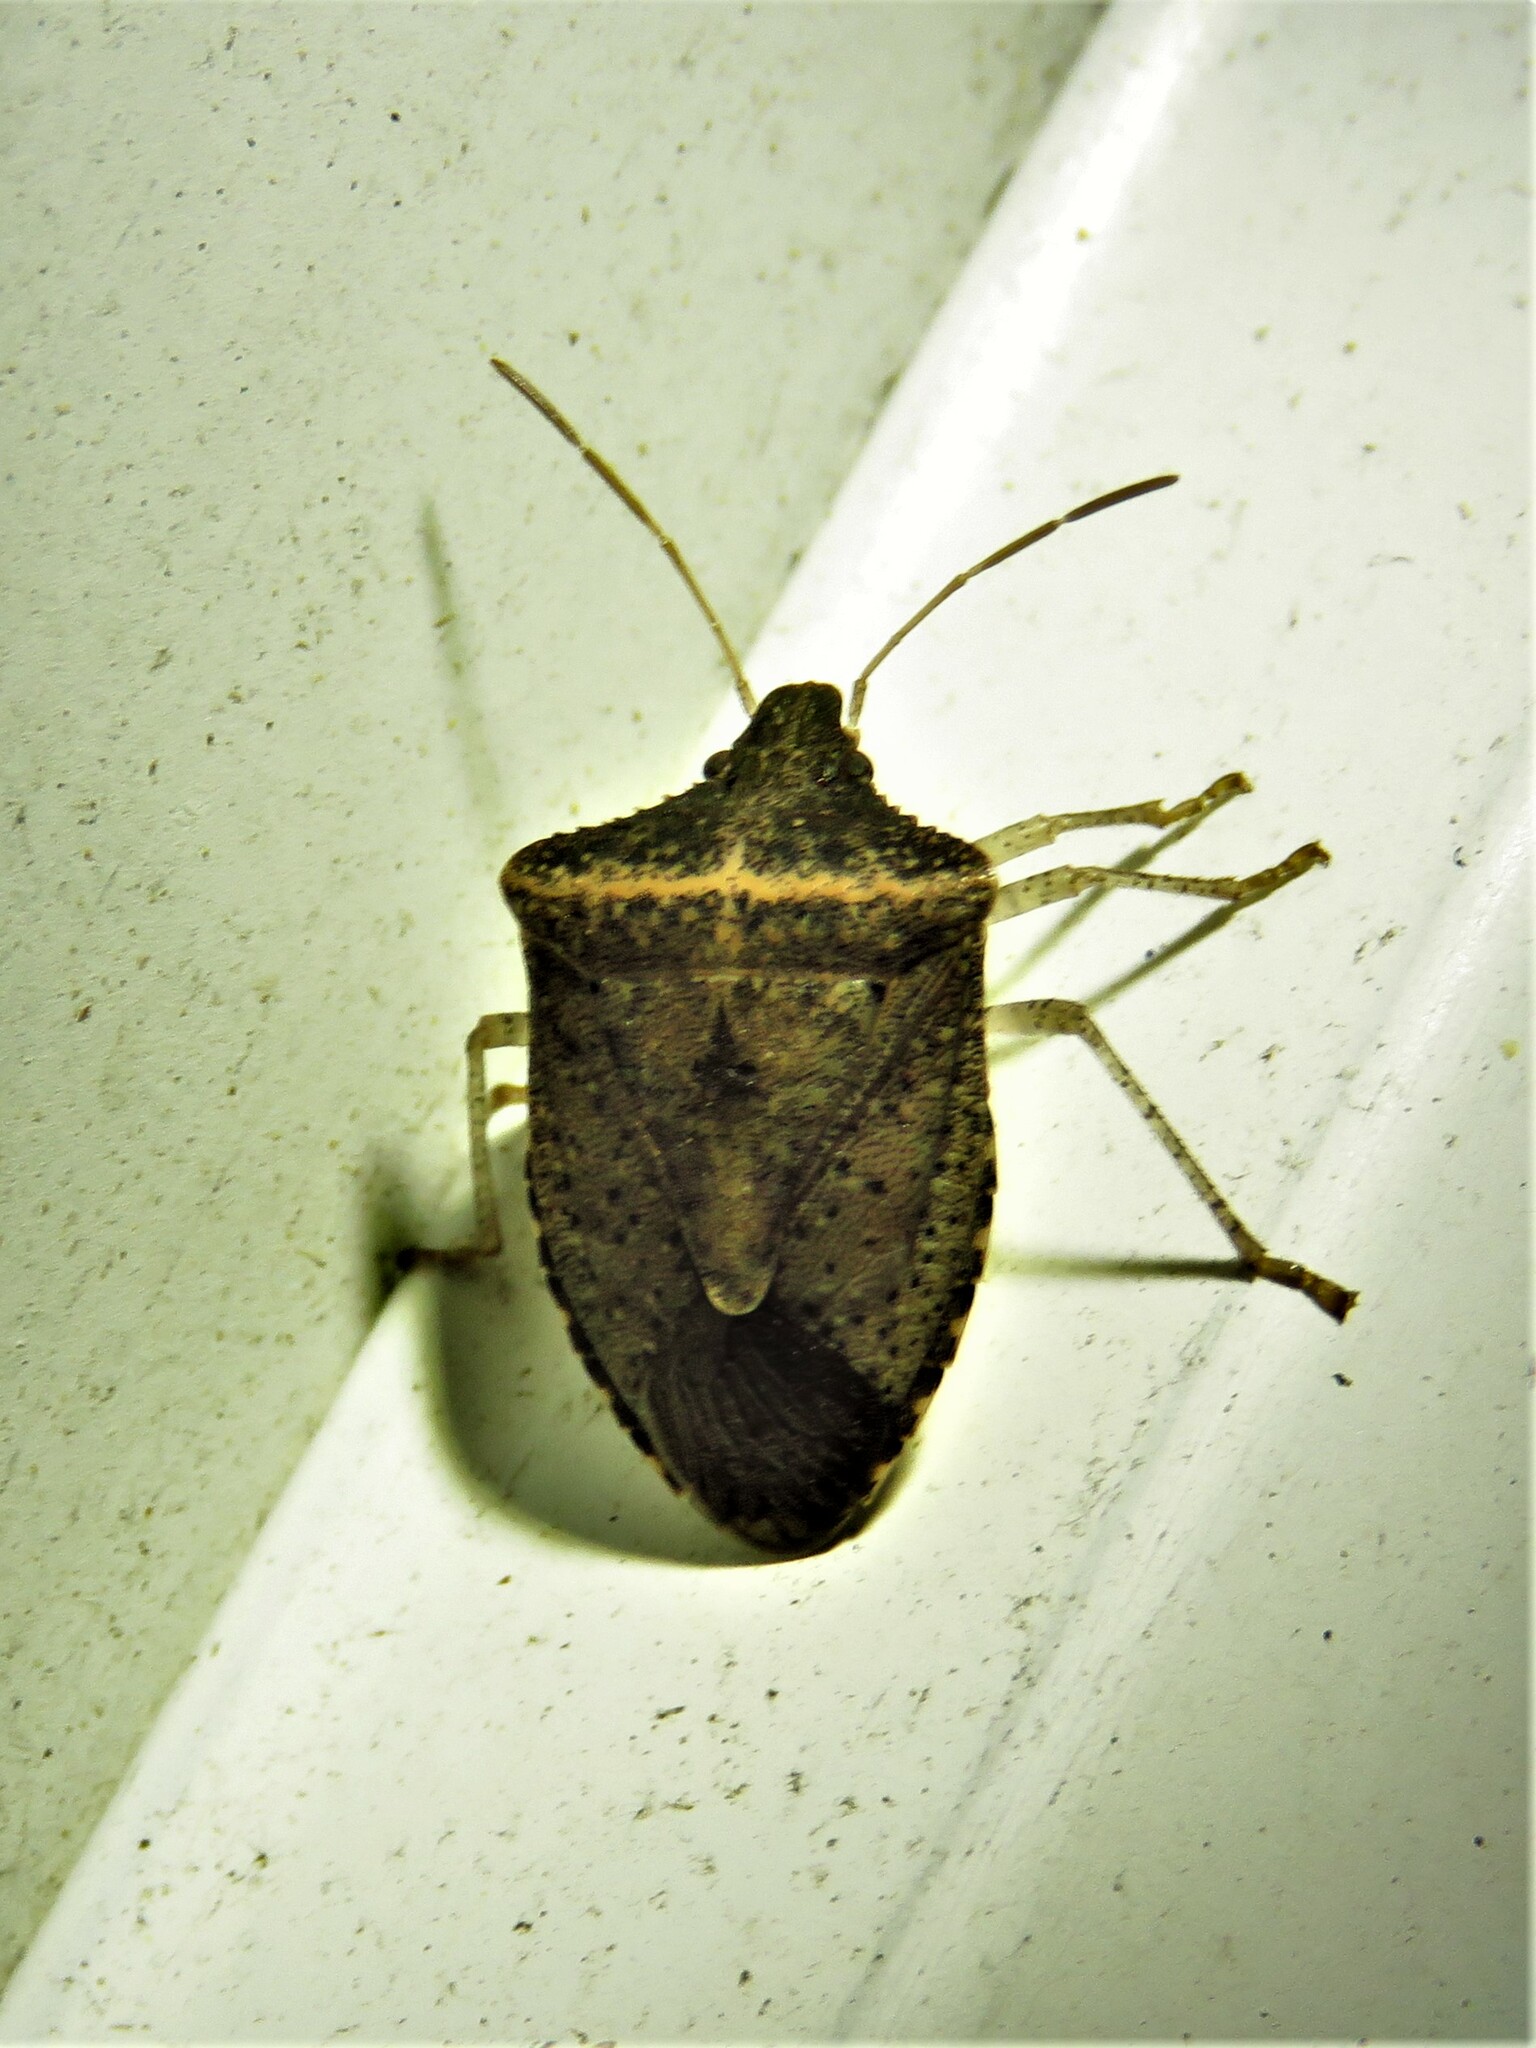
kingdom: Animalia
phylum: Arthropoda
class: Insecta
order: Hemiptera
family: Pentatomidae
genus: Euschistus
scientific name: Euschistus obscurus
